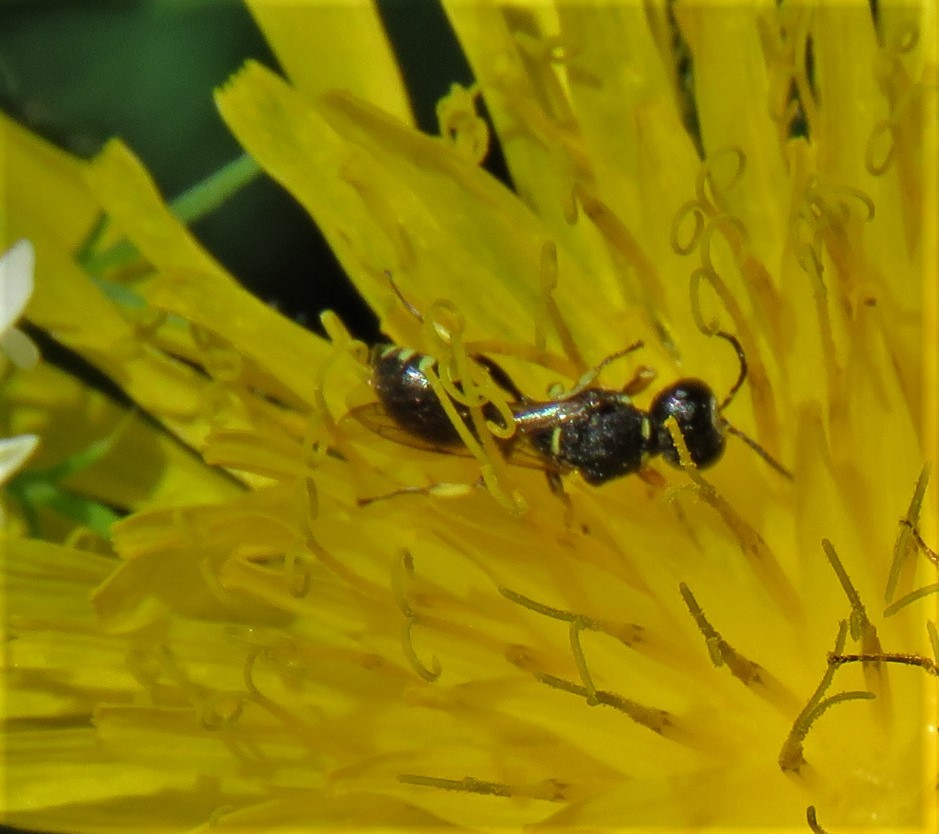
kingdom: Animalia
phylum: Arthropoda
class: Insecta
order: Hymenoptera
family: Crabronidae
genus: Ectemnius
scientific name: Ectemnius borealis
